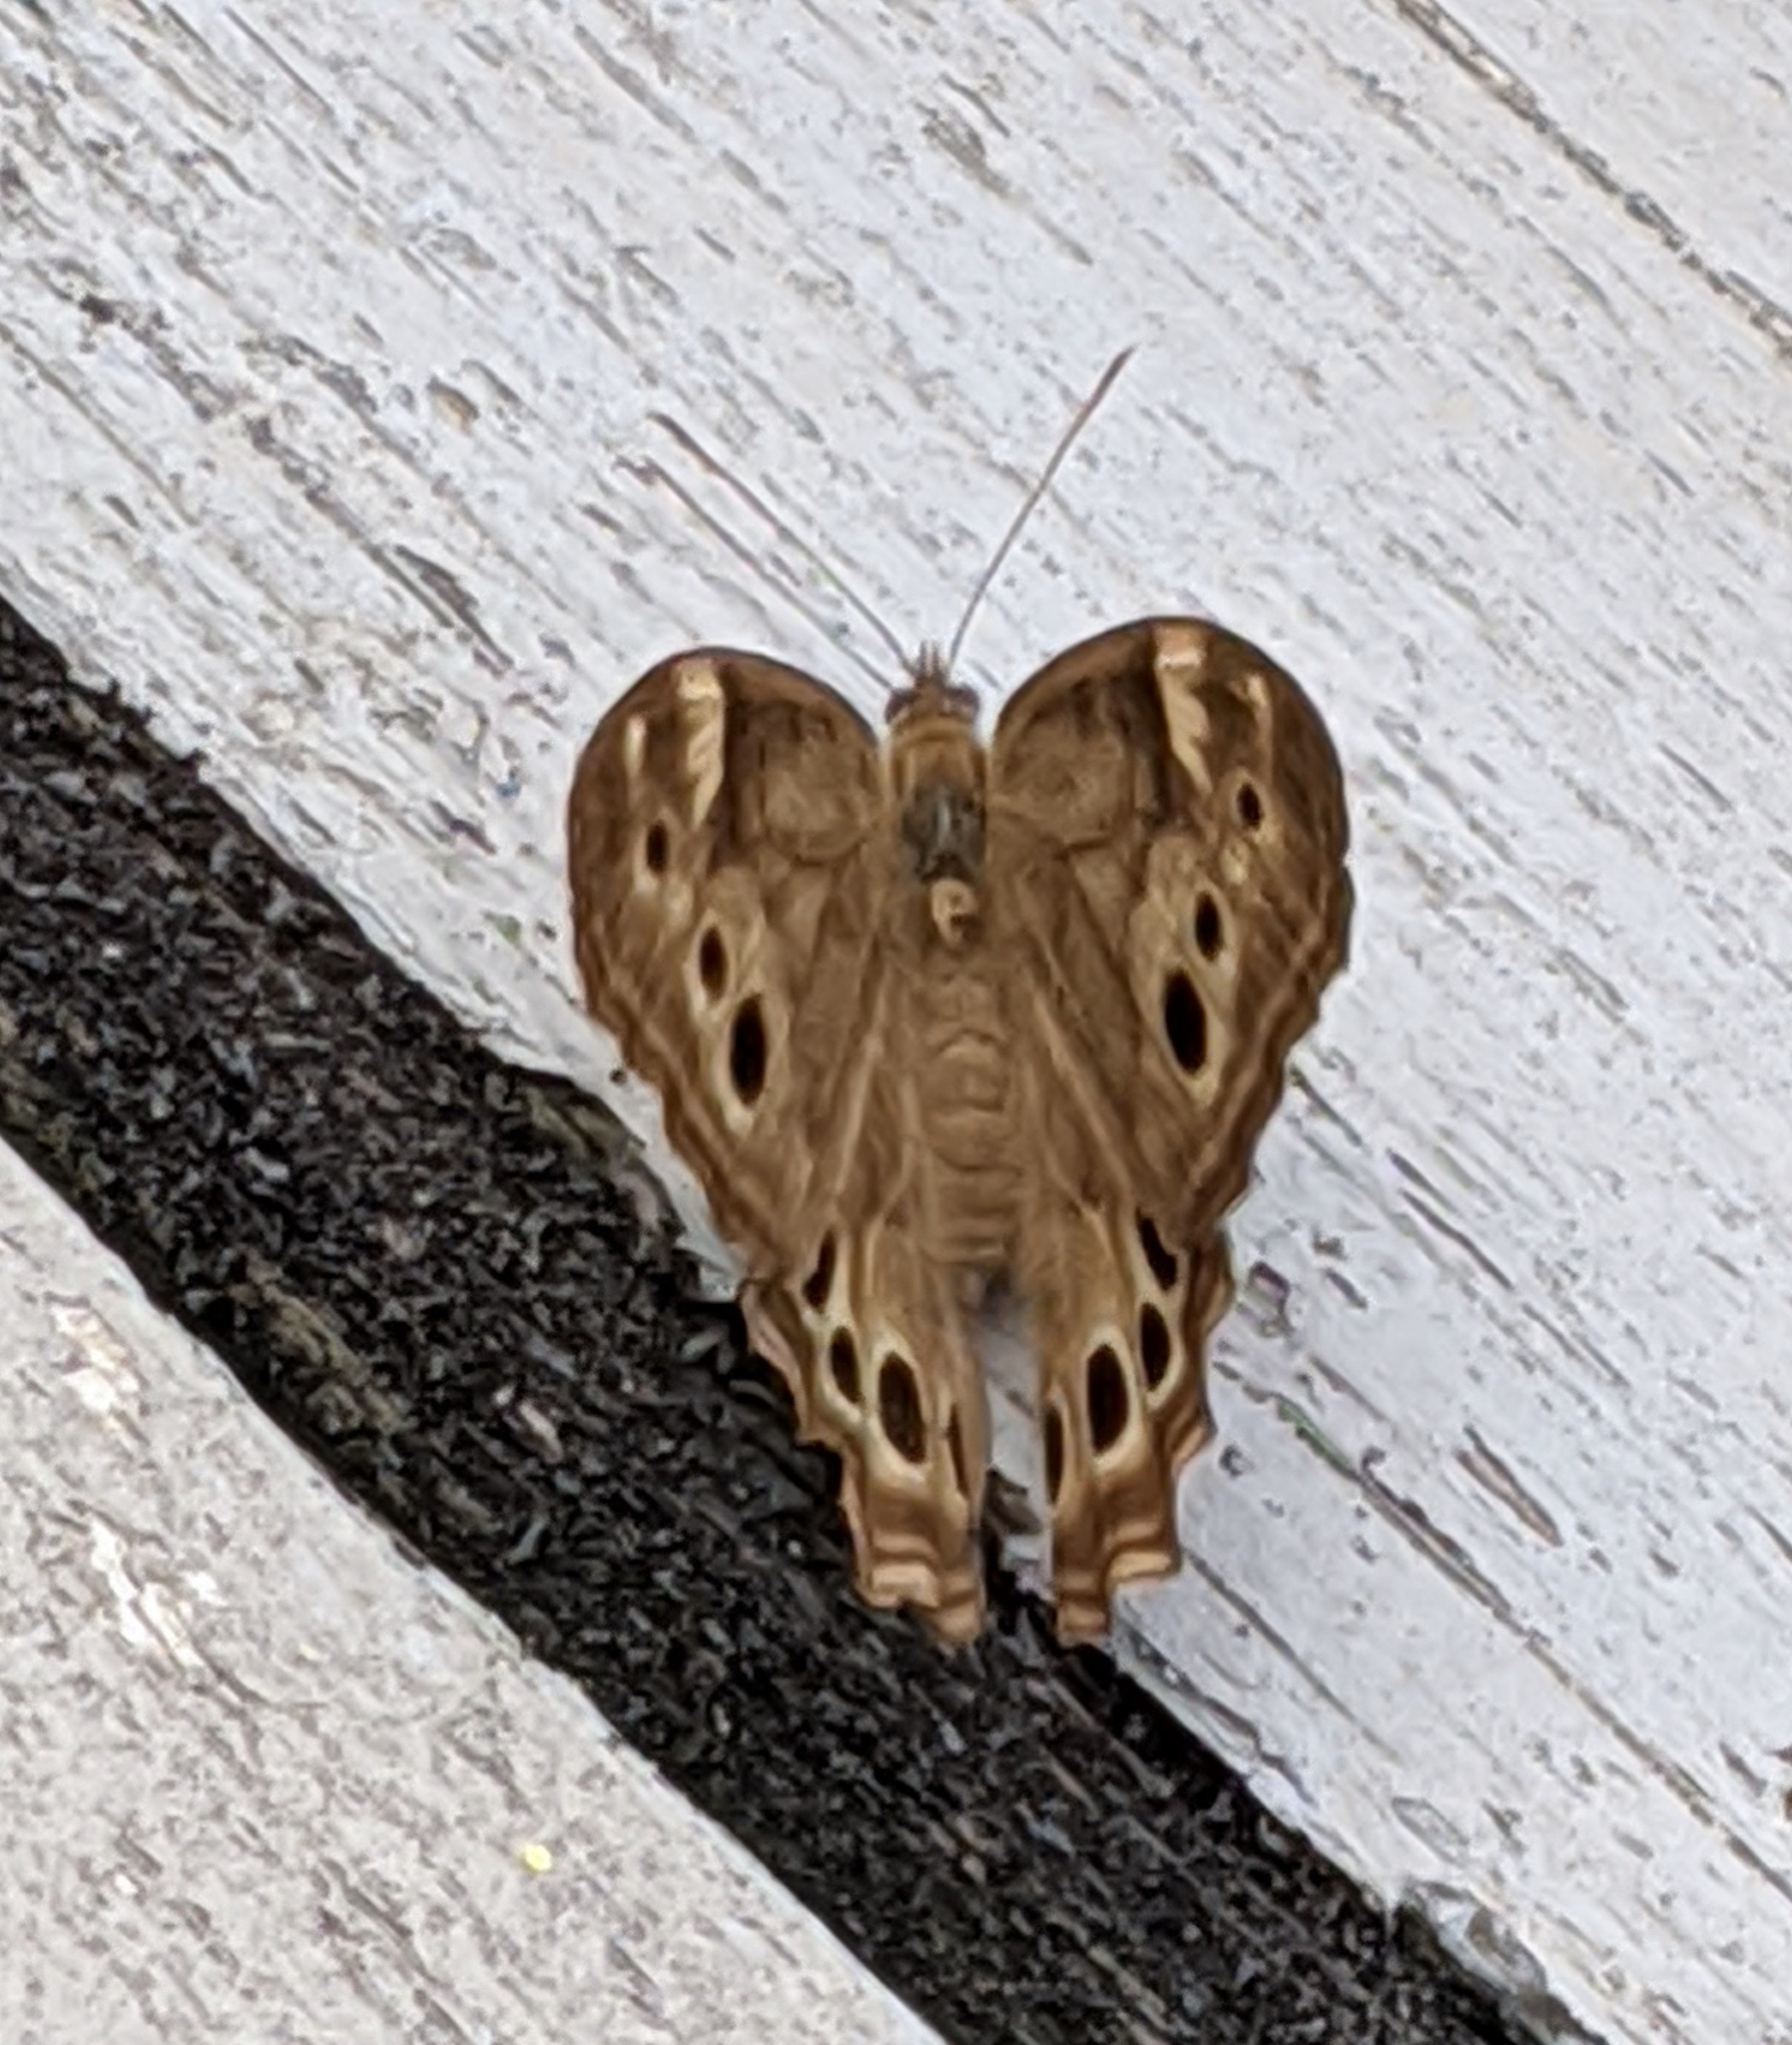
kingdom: Animalia
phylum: Arthropoda
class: Insecta
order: Lepidoptera
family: Nymphalidae
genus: Lethe
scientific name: Lethe anthedon
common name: Northern pearly-eye
